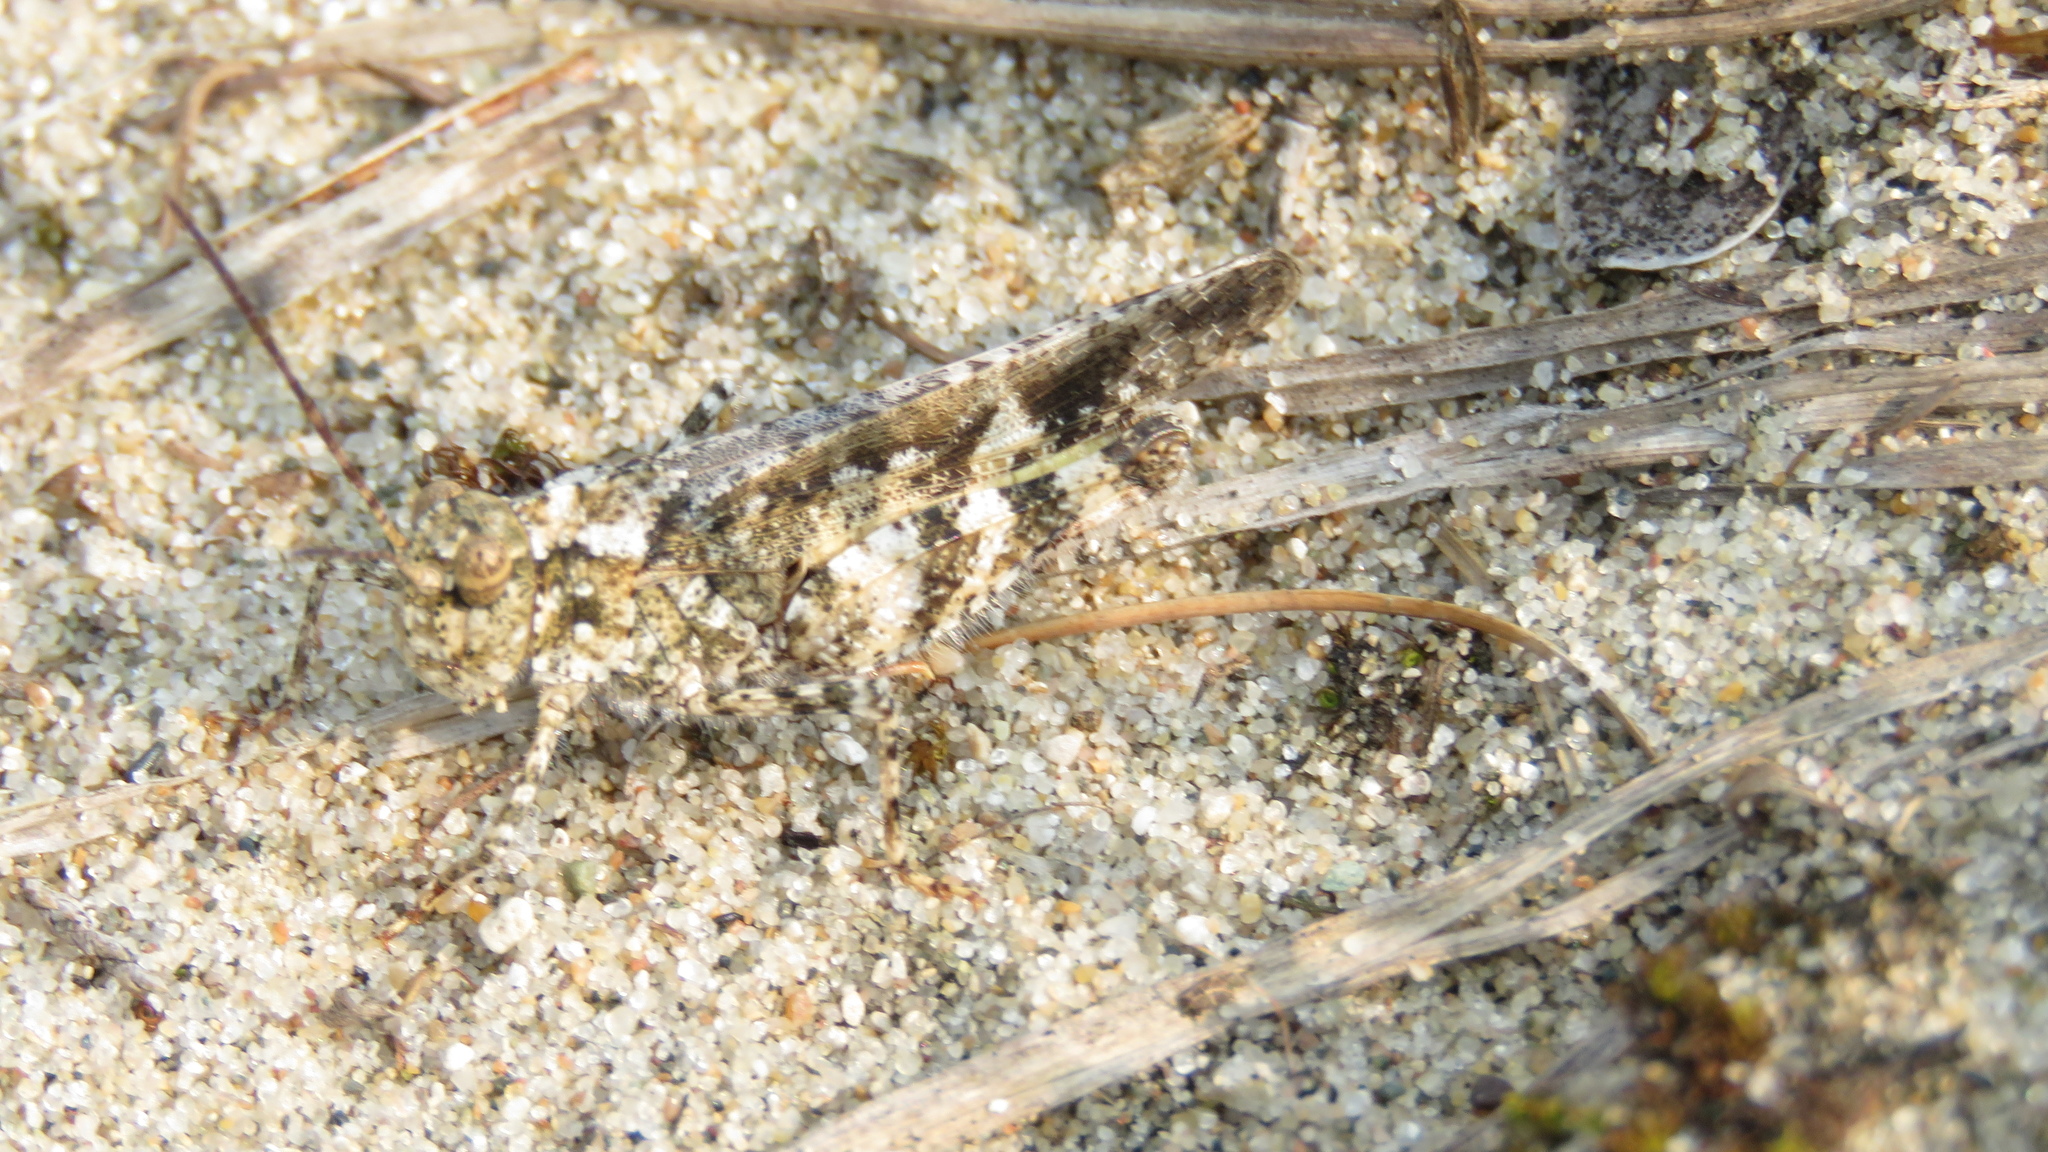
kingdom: Animalia
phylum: Arthropoda
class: Insecta
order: Orthoptera
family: Acrididae
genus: Spharagemon
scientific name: Spharagemon collare
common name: Mottled sand grasshopper
